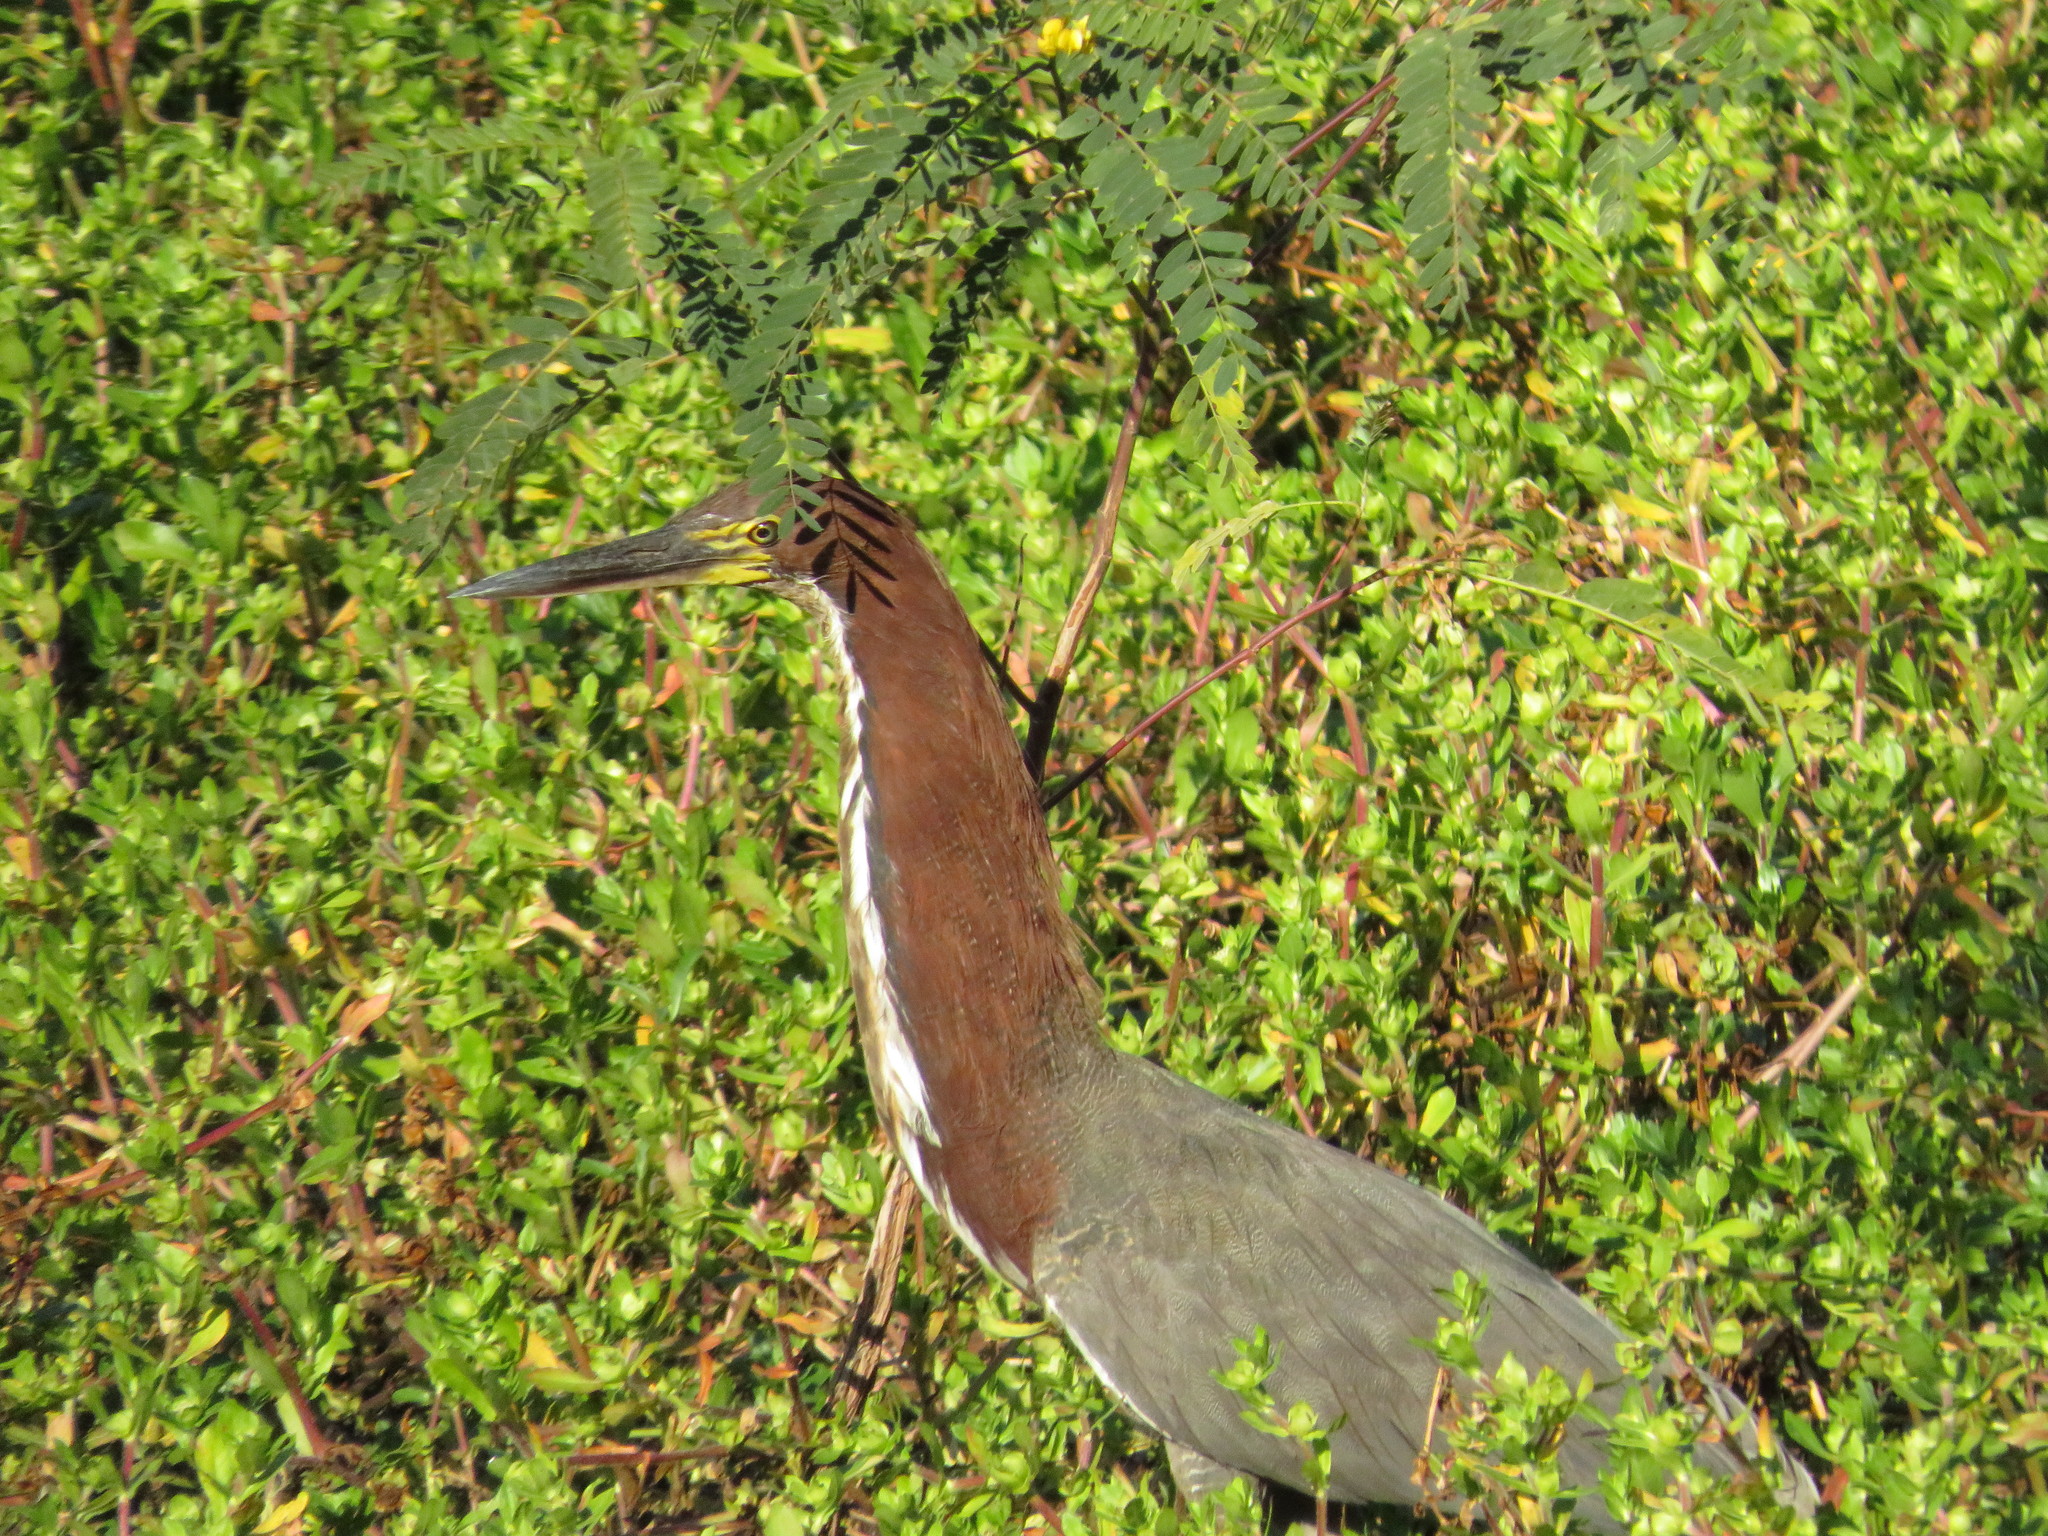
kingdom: Animalia
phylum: Chordata
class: Aves
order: Pelecaniformes
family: Ardeidae
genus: Tigrisoma
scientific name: Tigrisoma lineatum
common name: Rufescent tiger-heron
